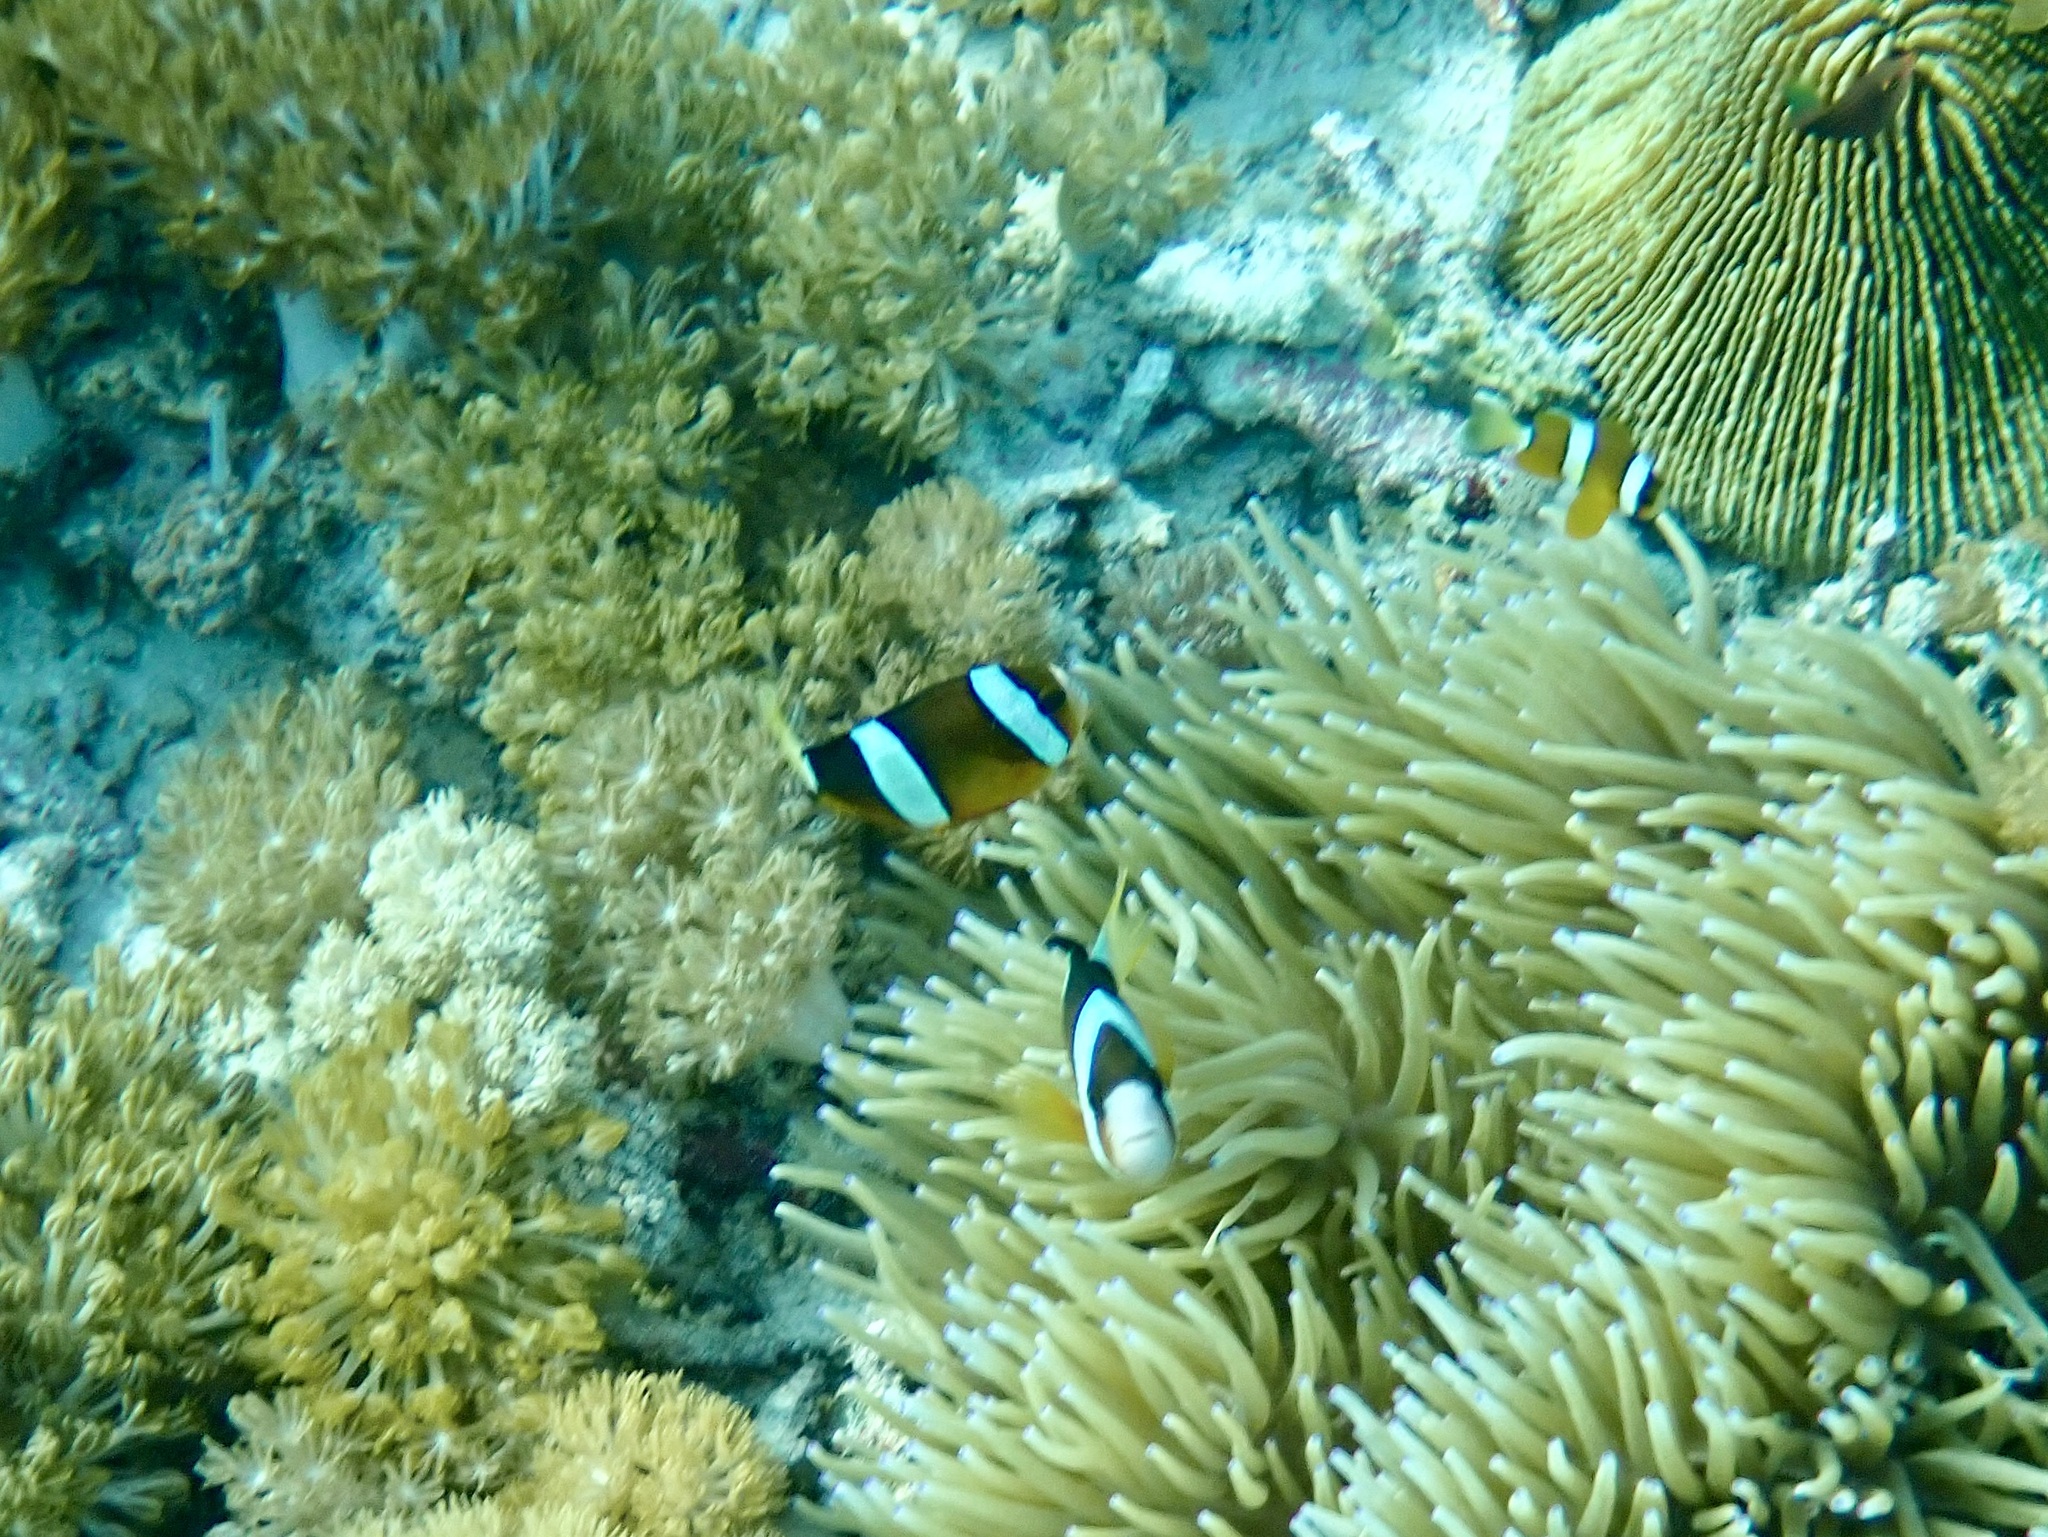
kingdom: Animalia
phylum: Chordata
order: Perciformes
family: Pomacentridae
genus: Amphiprion
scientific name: Amphiprion clarkii
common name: Clark's anemonefish
